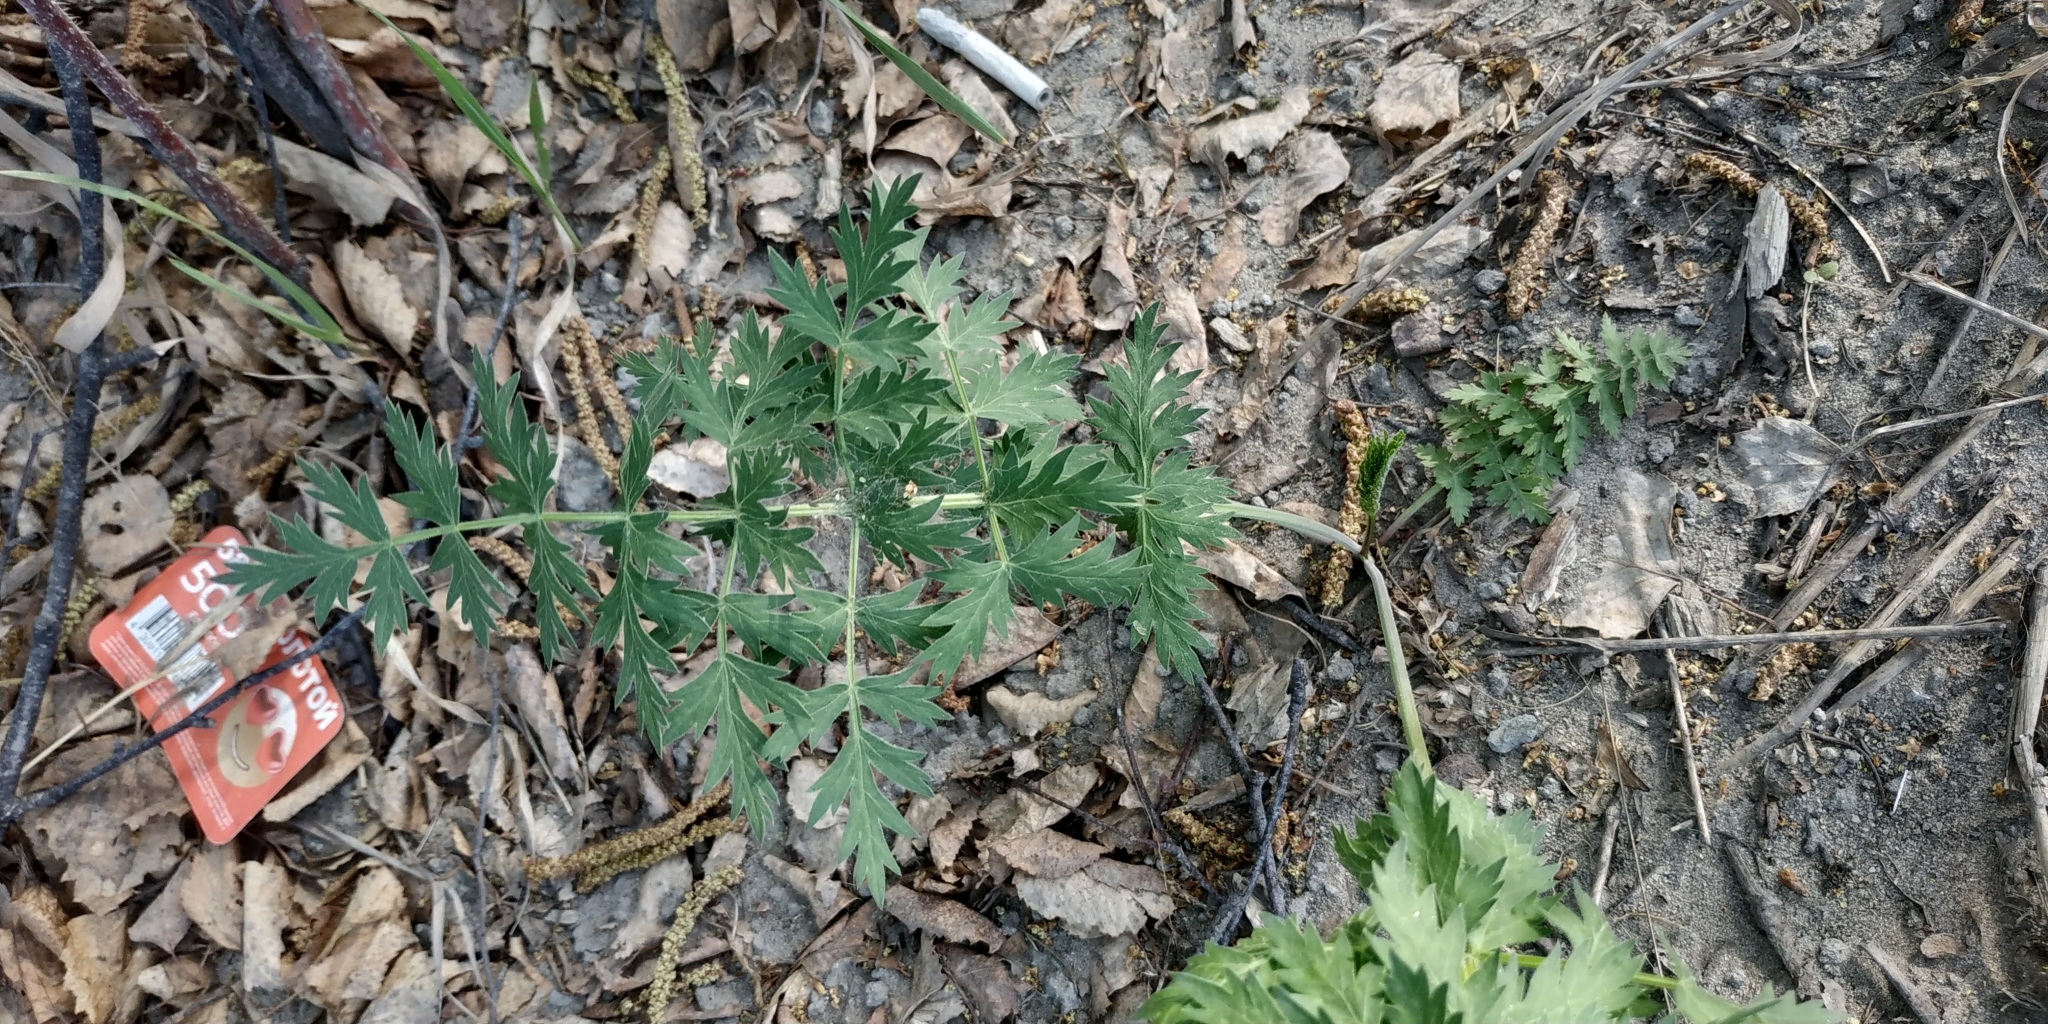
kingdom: Plantae
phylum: Tracheophyta
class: Magnoliopsida
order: Apiales
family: Apiaceae
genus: Seseli
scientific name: Seseli libanotis
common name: Mooncarrot
